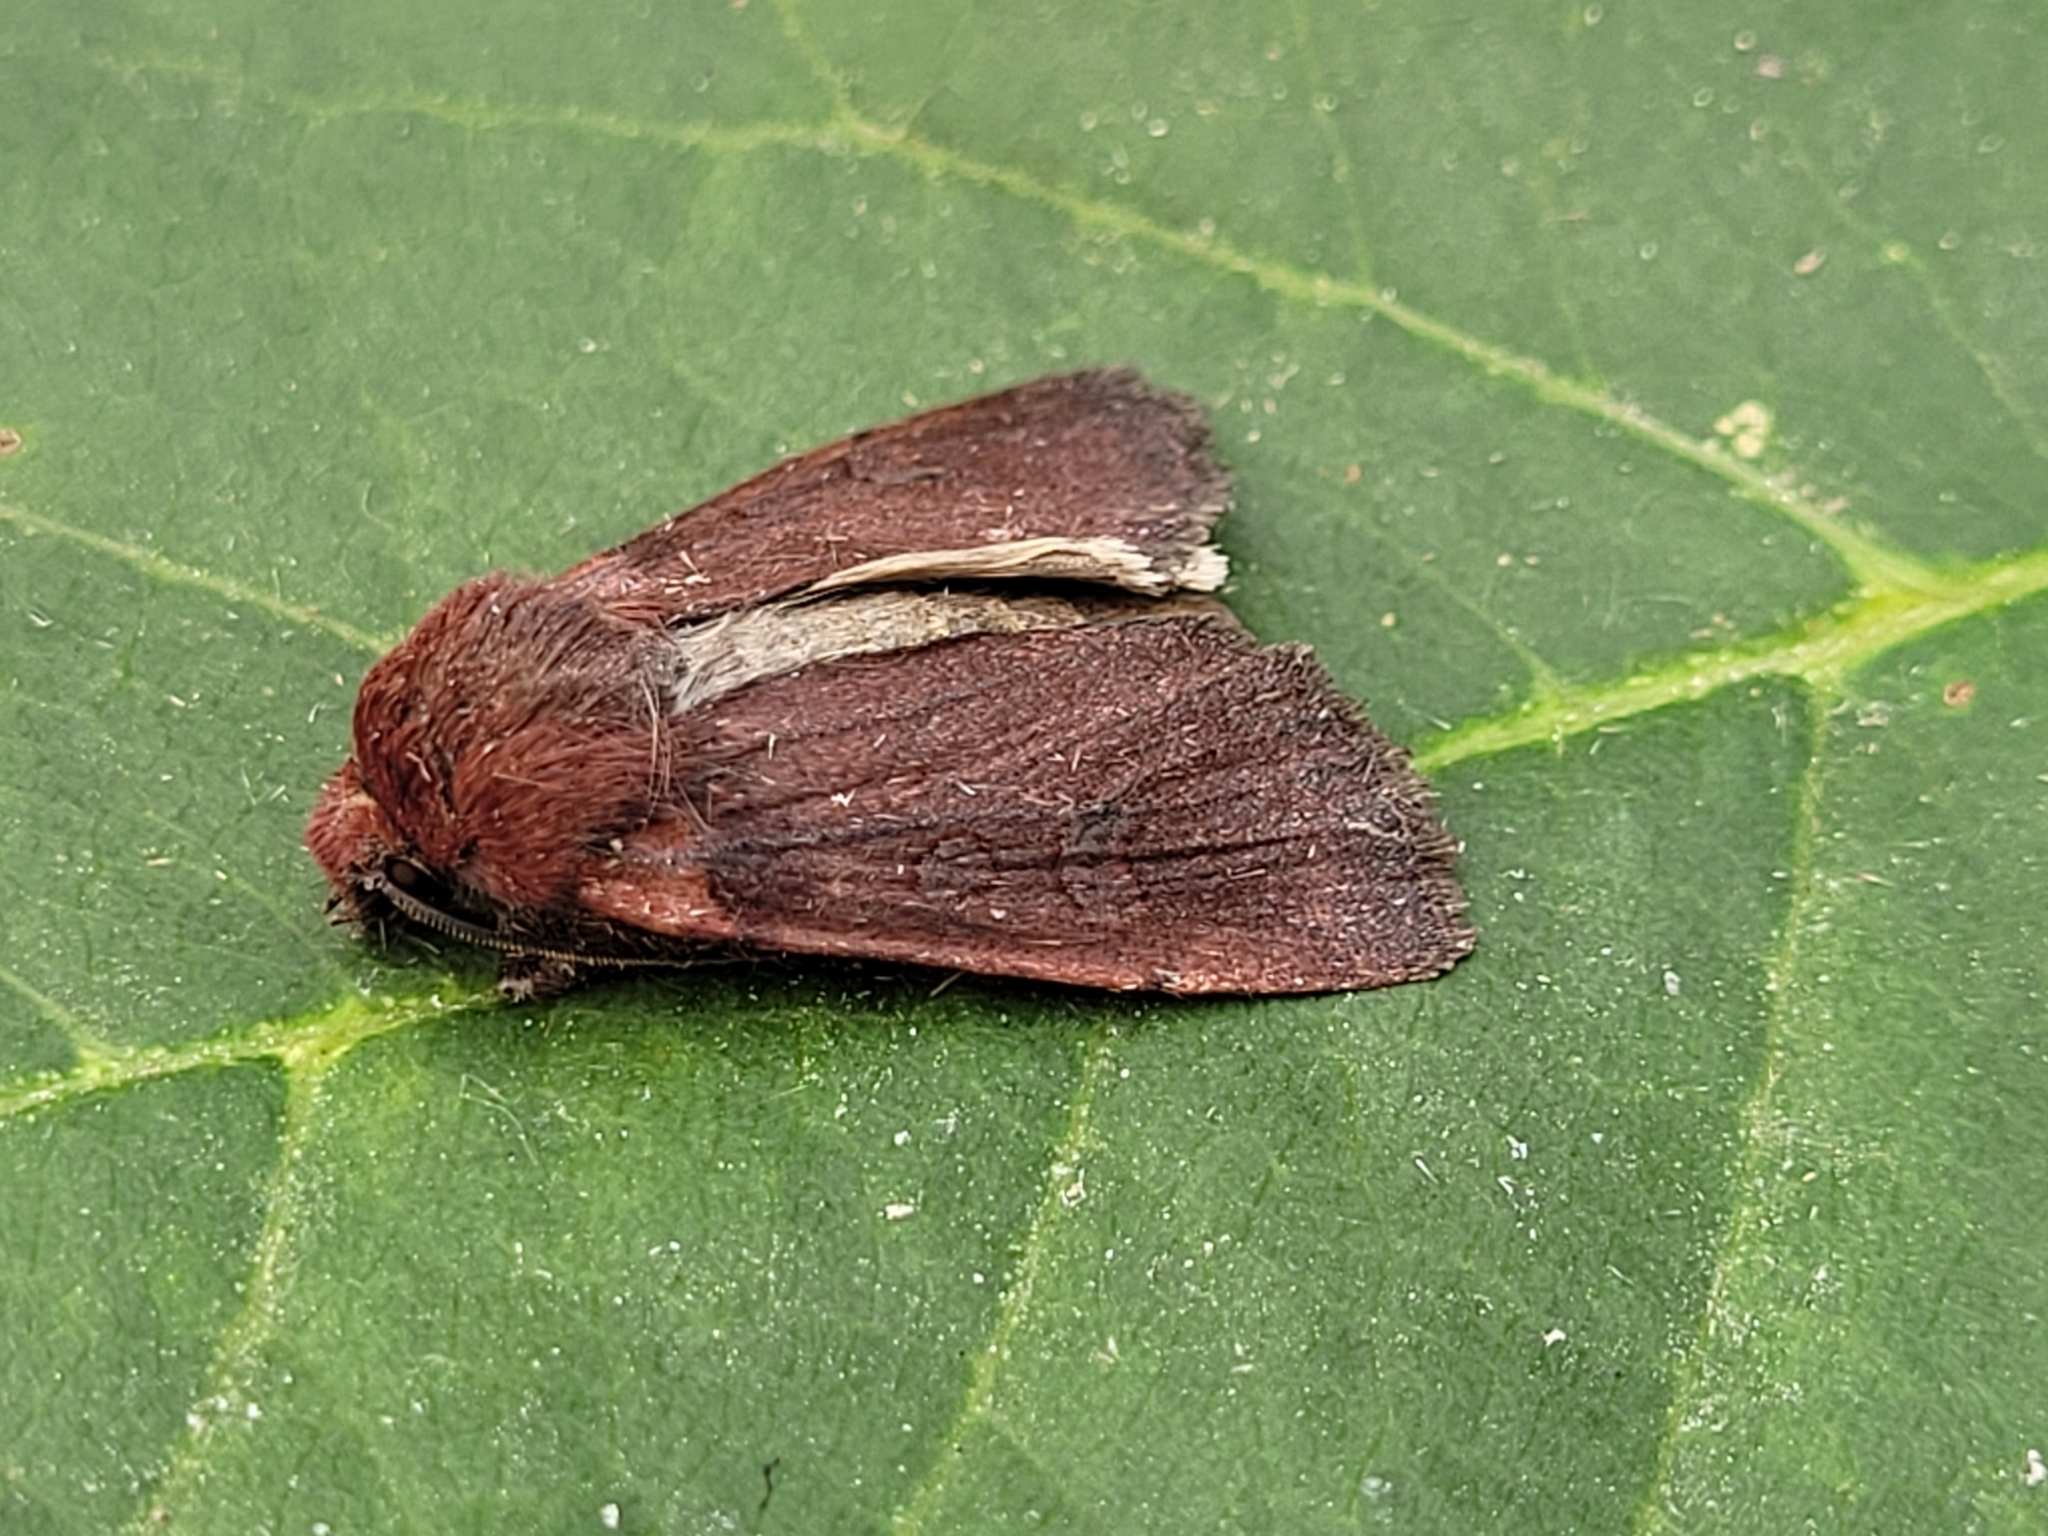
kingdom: Animalia
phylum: Arthropoda
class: Insecta
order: Lepidoptera
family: Noctuidae
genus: Euxoa
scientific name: Euxoa perpolita
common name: Polished dart
